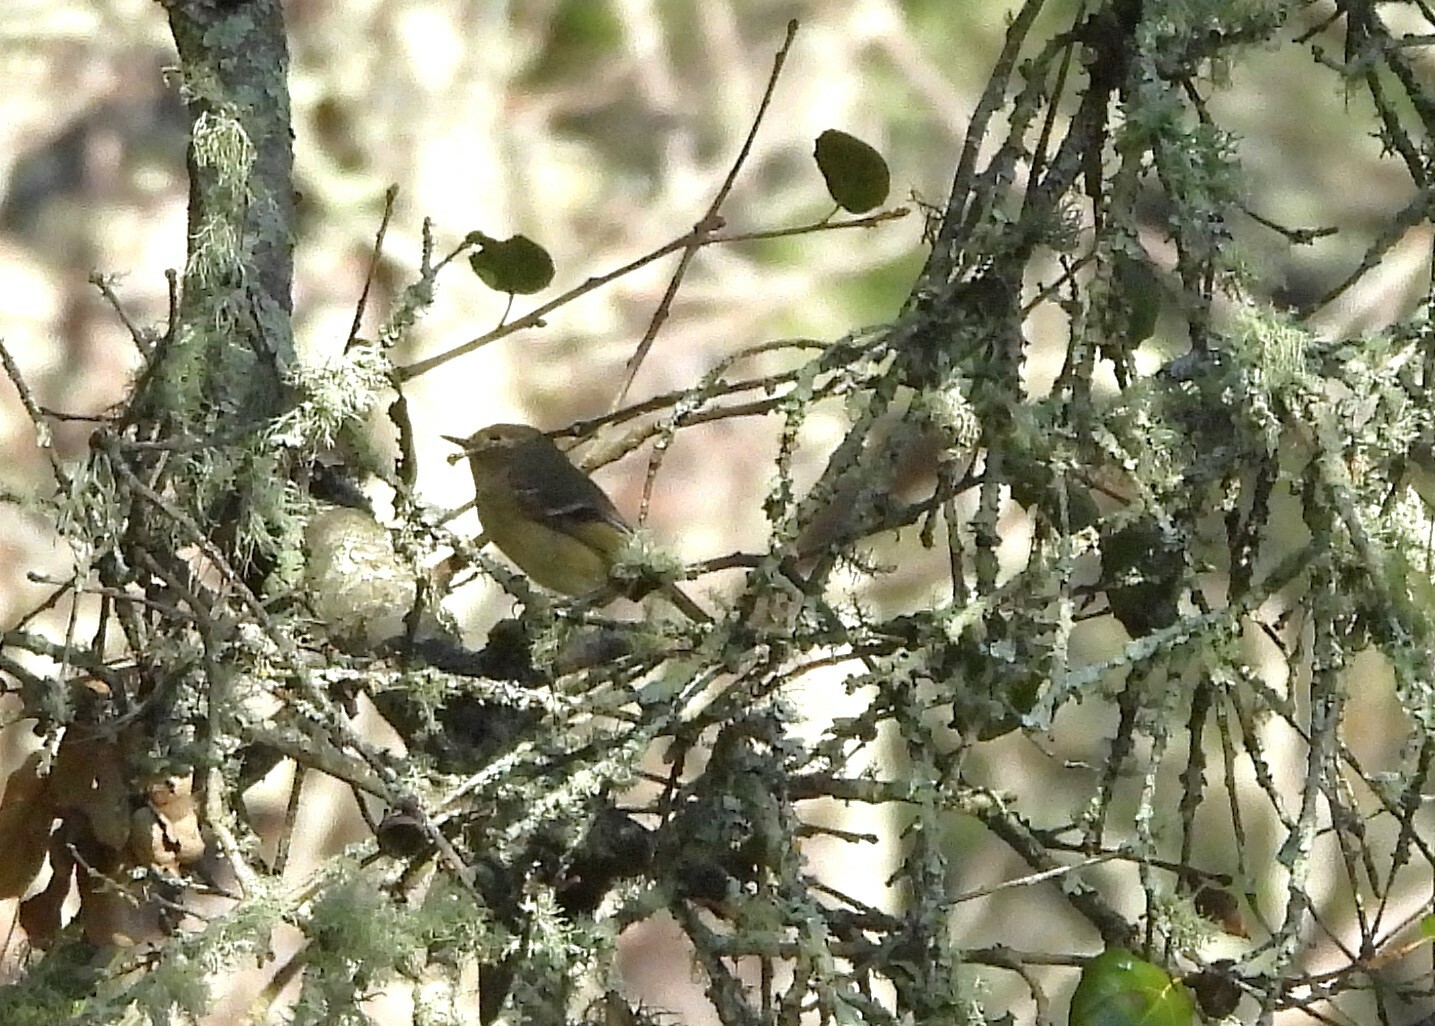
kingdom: Animalia
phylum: Chordata
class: Aves
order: Passeriformes
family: Regulidae
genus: Regulus
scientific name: Regulus calendula
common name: Ruby-crowned kinglet
